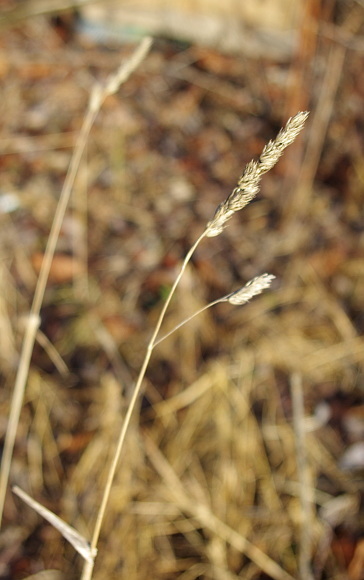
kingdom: Plantae
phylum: Tracheophyta
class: Liliopsida
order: Poales
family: Poaceae
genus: Dactylis
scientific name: Dactylis glomerata
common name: Orchardgrass
